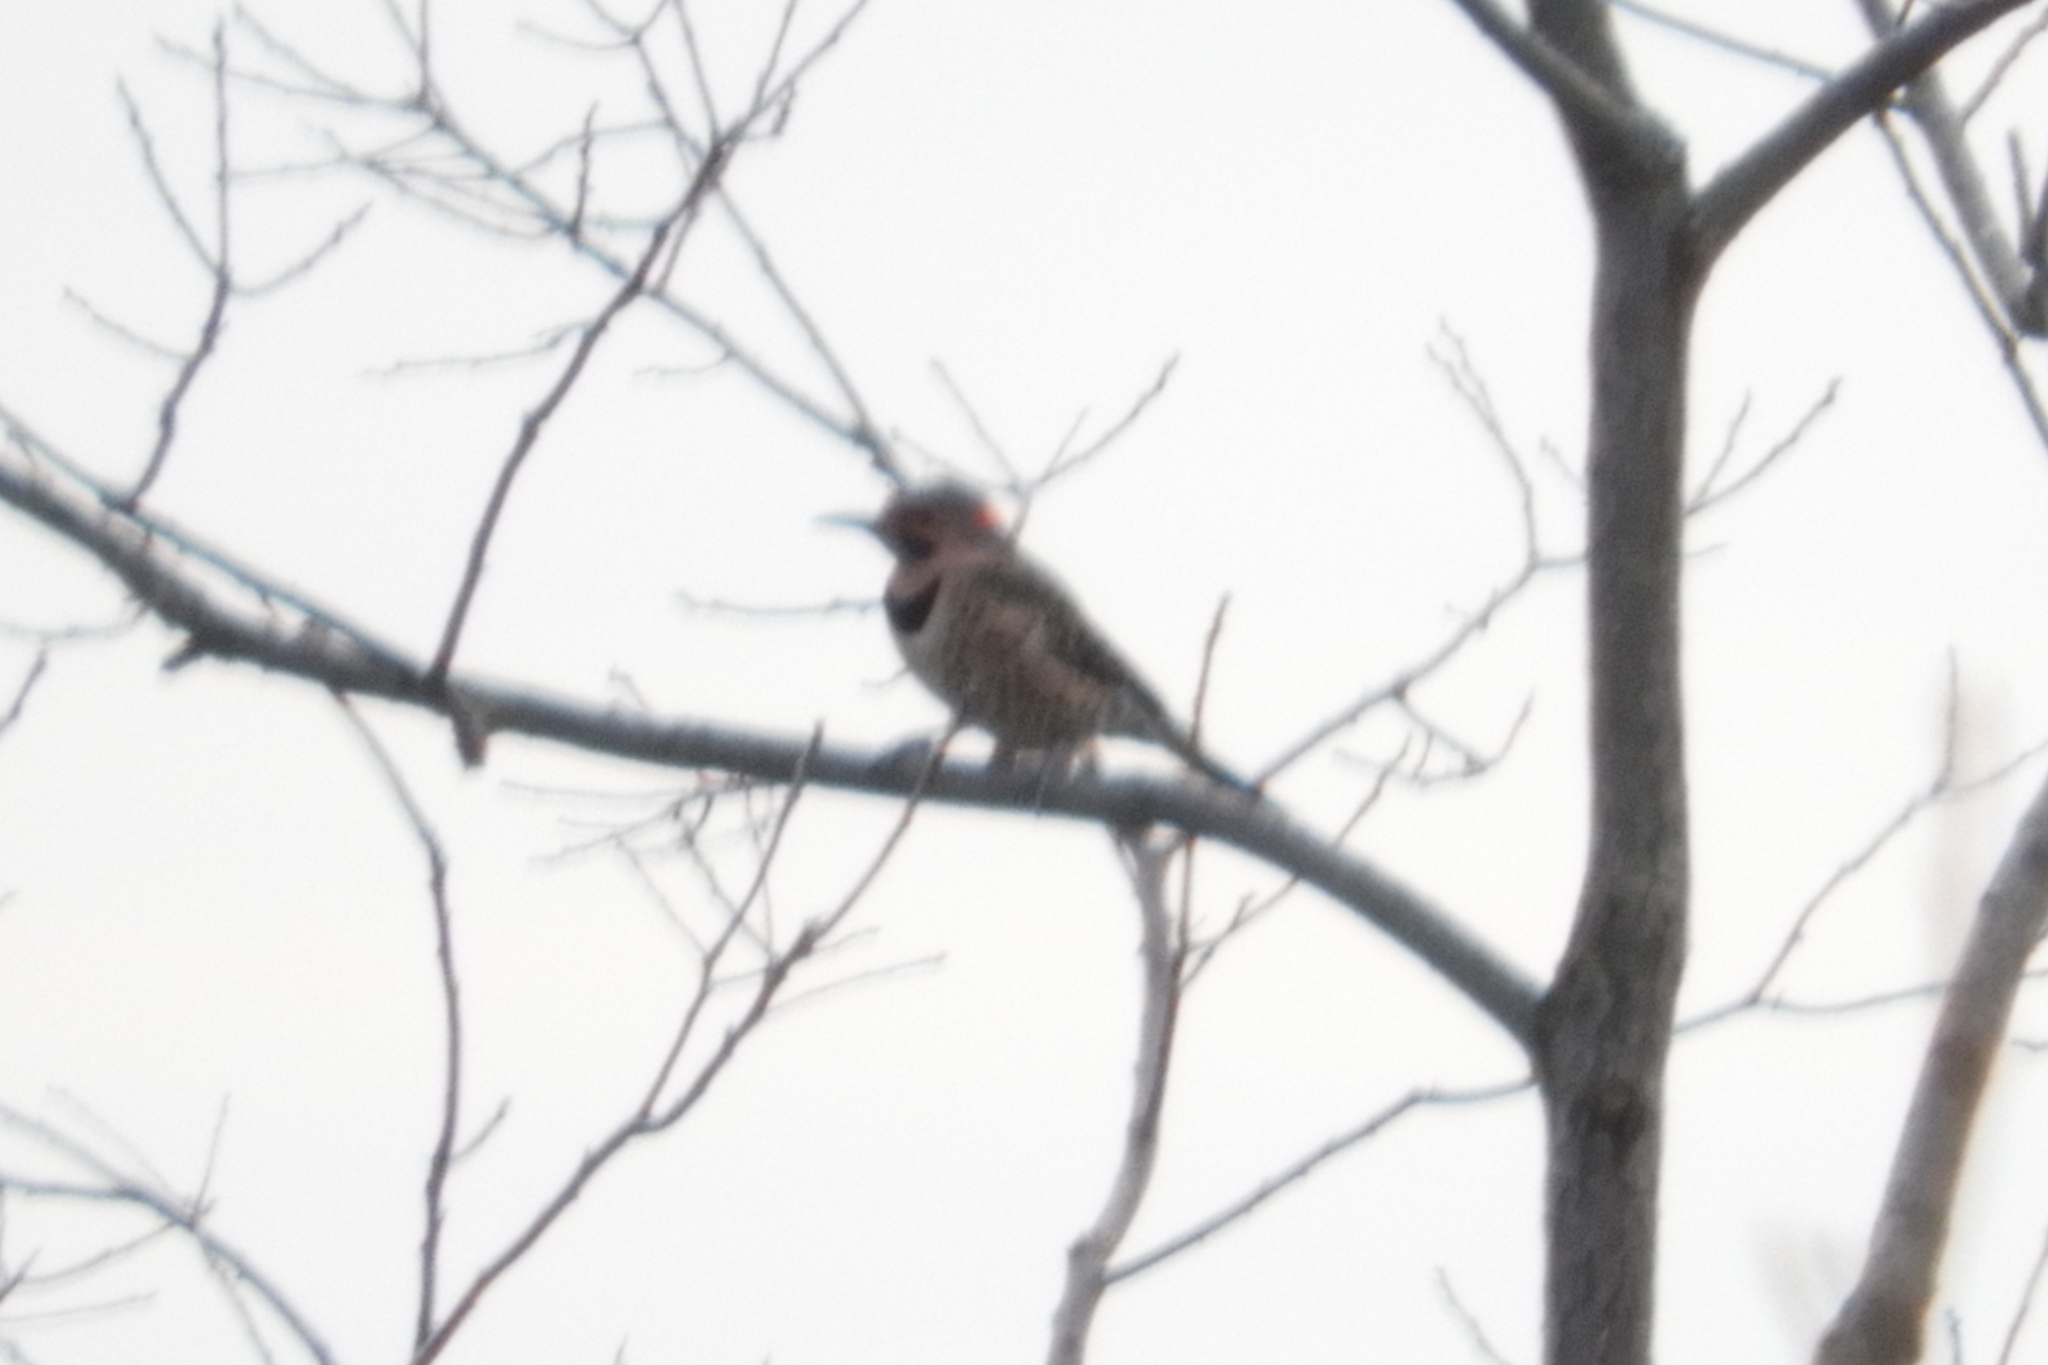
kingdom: Animalia
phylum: Chordata
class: Aves
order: Piciformes
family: Picidae
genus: Colaptes
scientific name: Colaptes auratus
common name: Northern flicker
